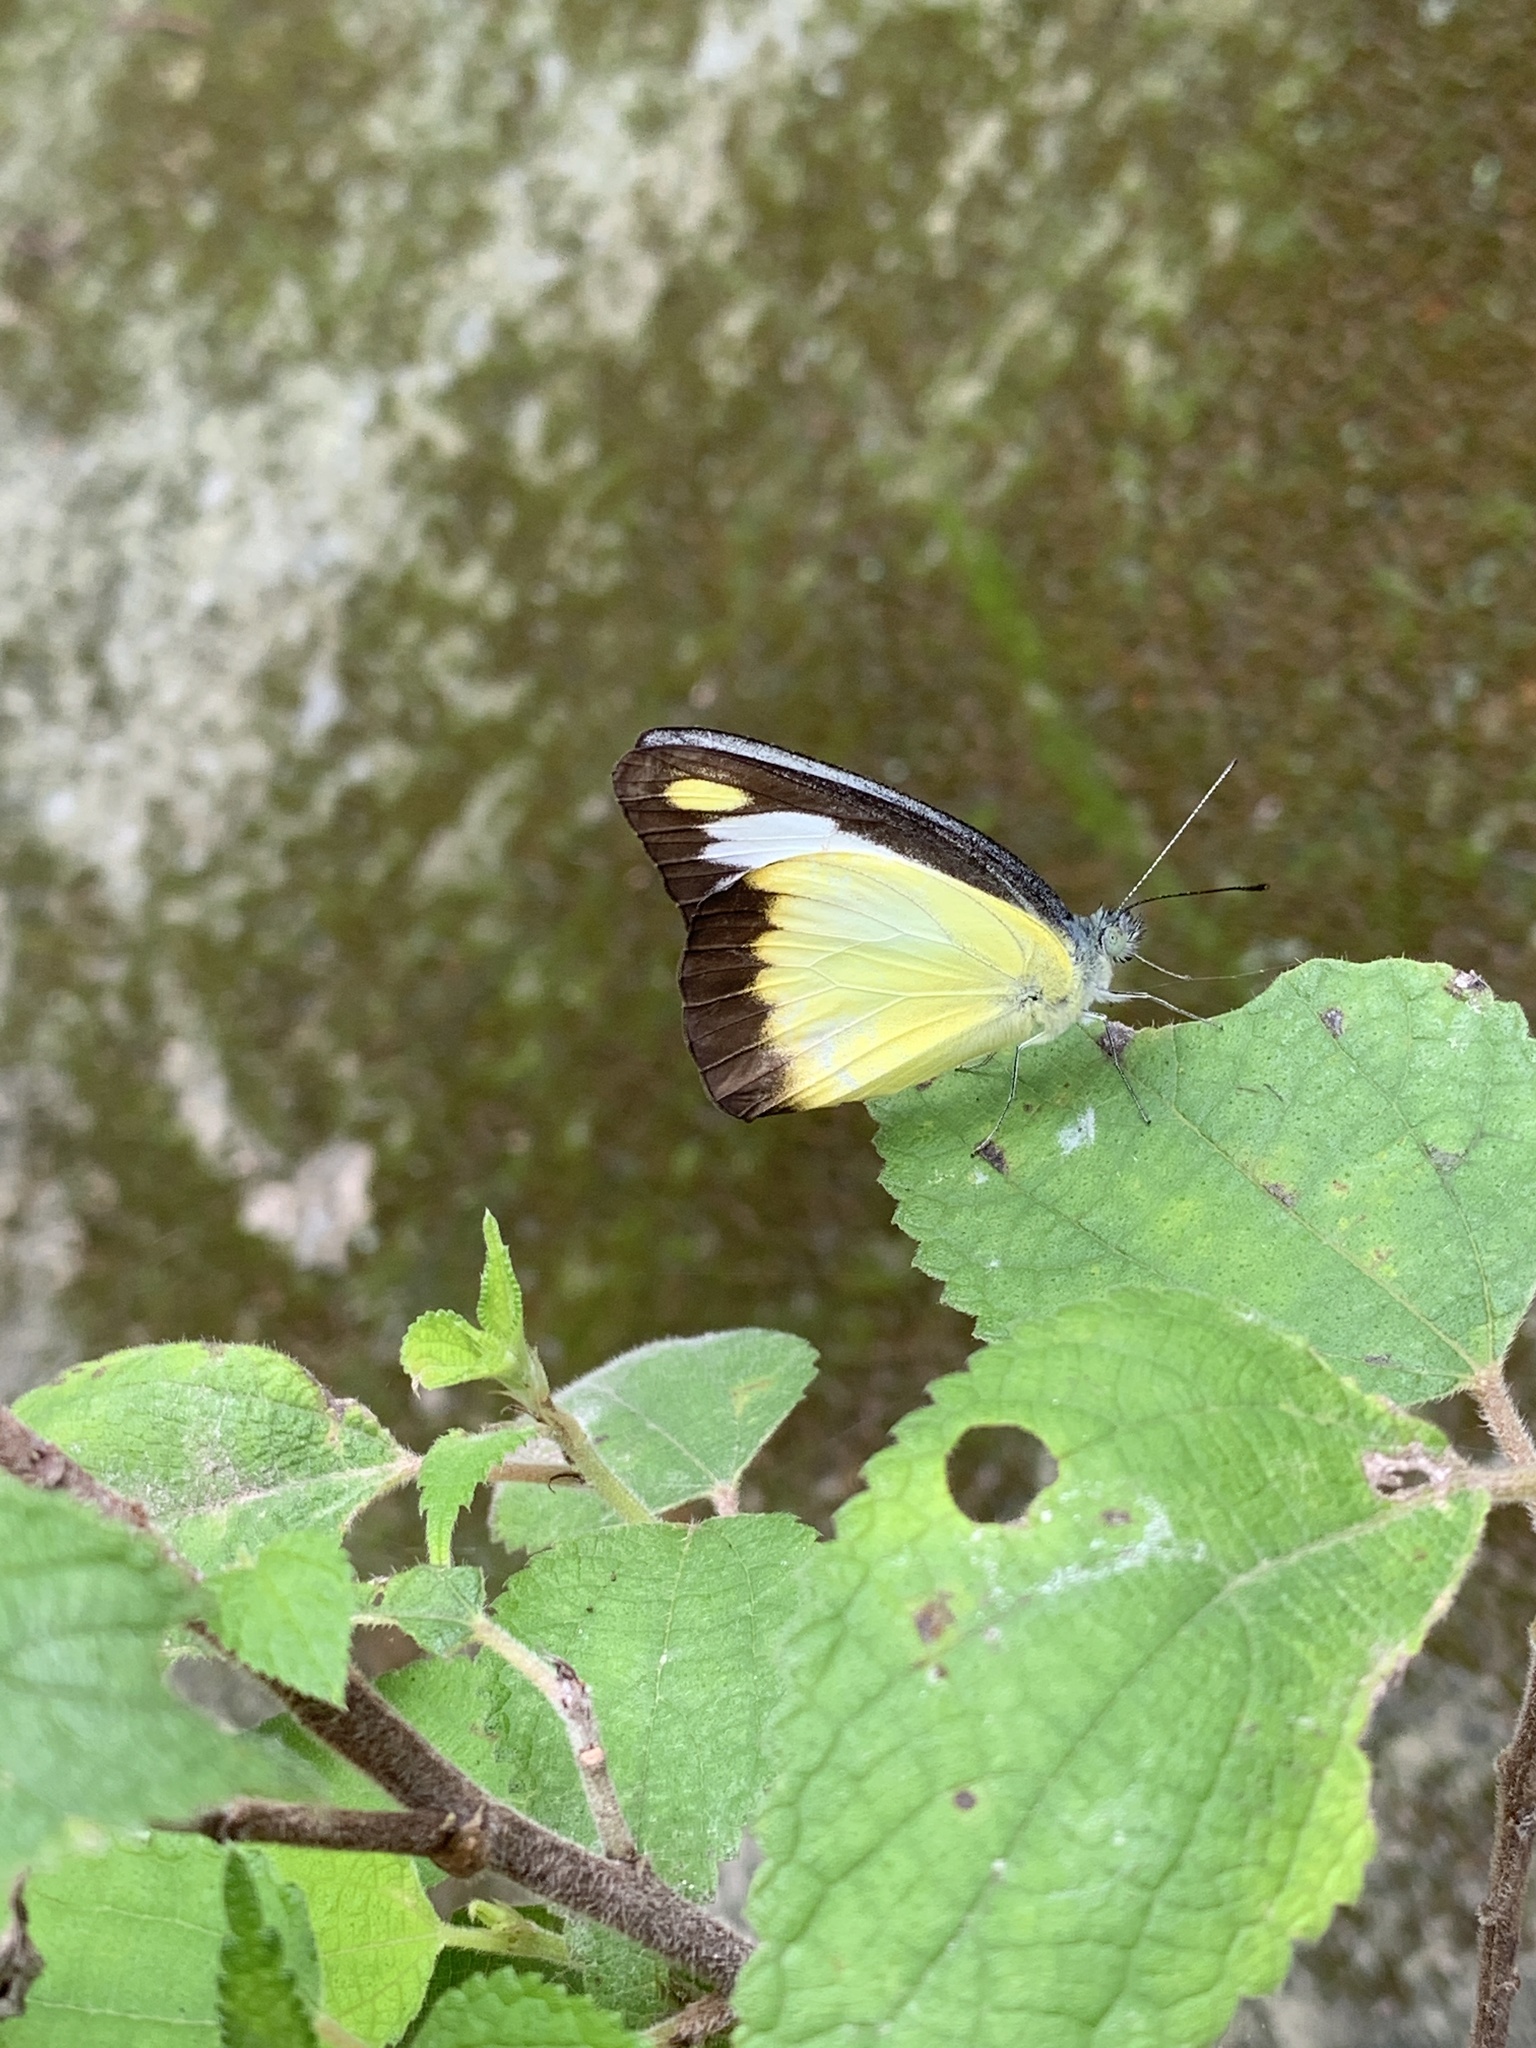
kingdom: Animalia
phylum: Arthropoda
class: Insecta
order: Lepidoptera
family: Pieridae
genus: Appias
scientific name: Appias lyncida
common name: Chocolate albatross
